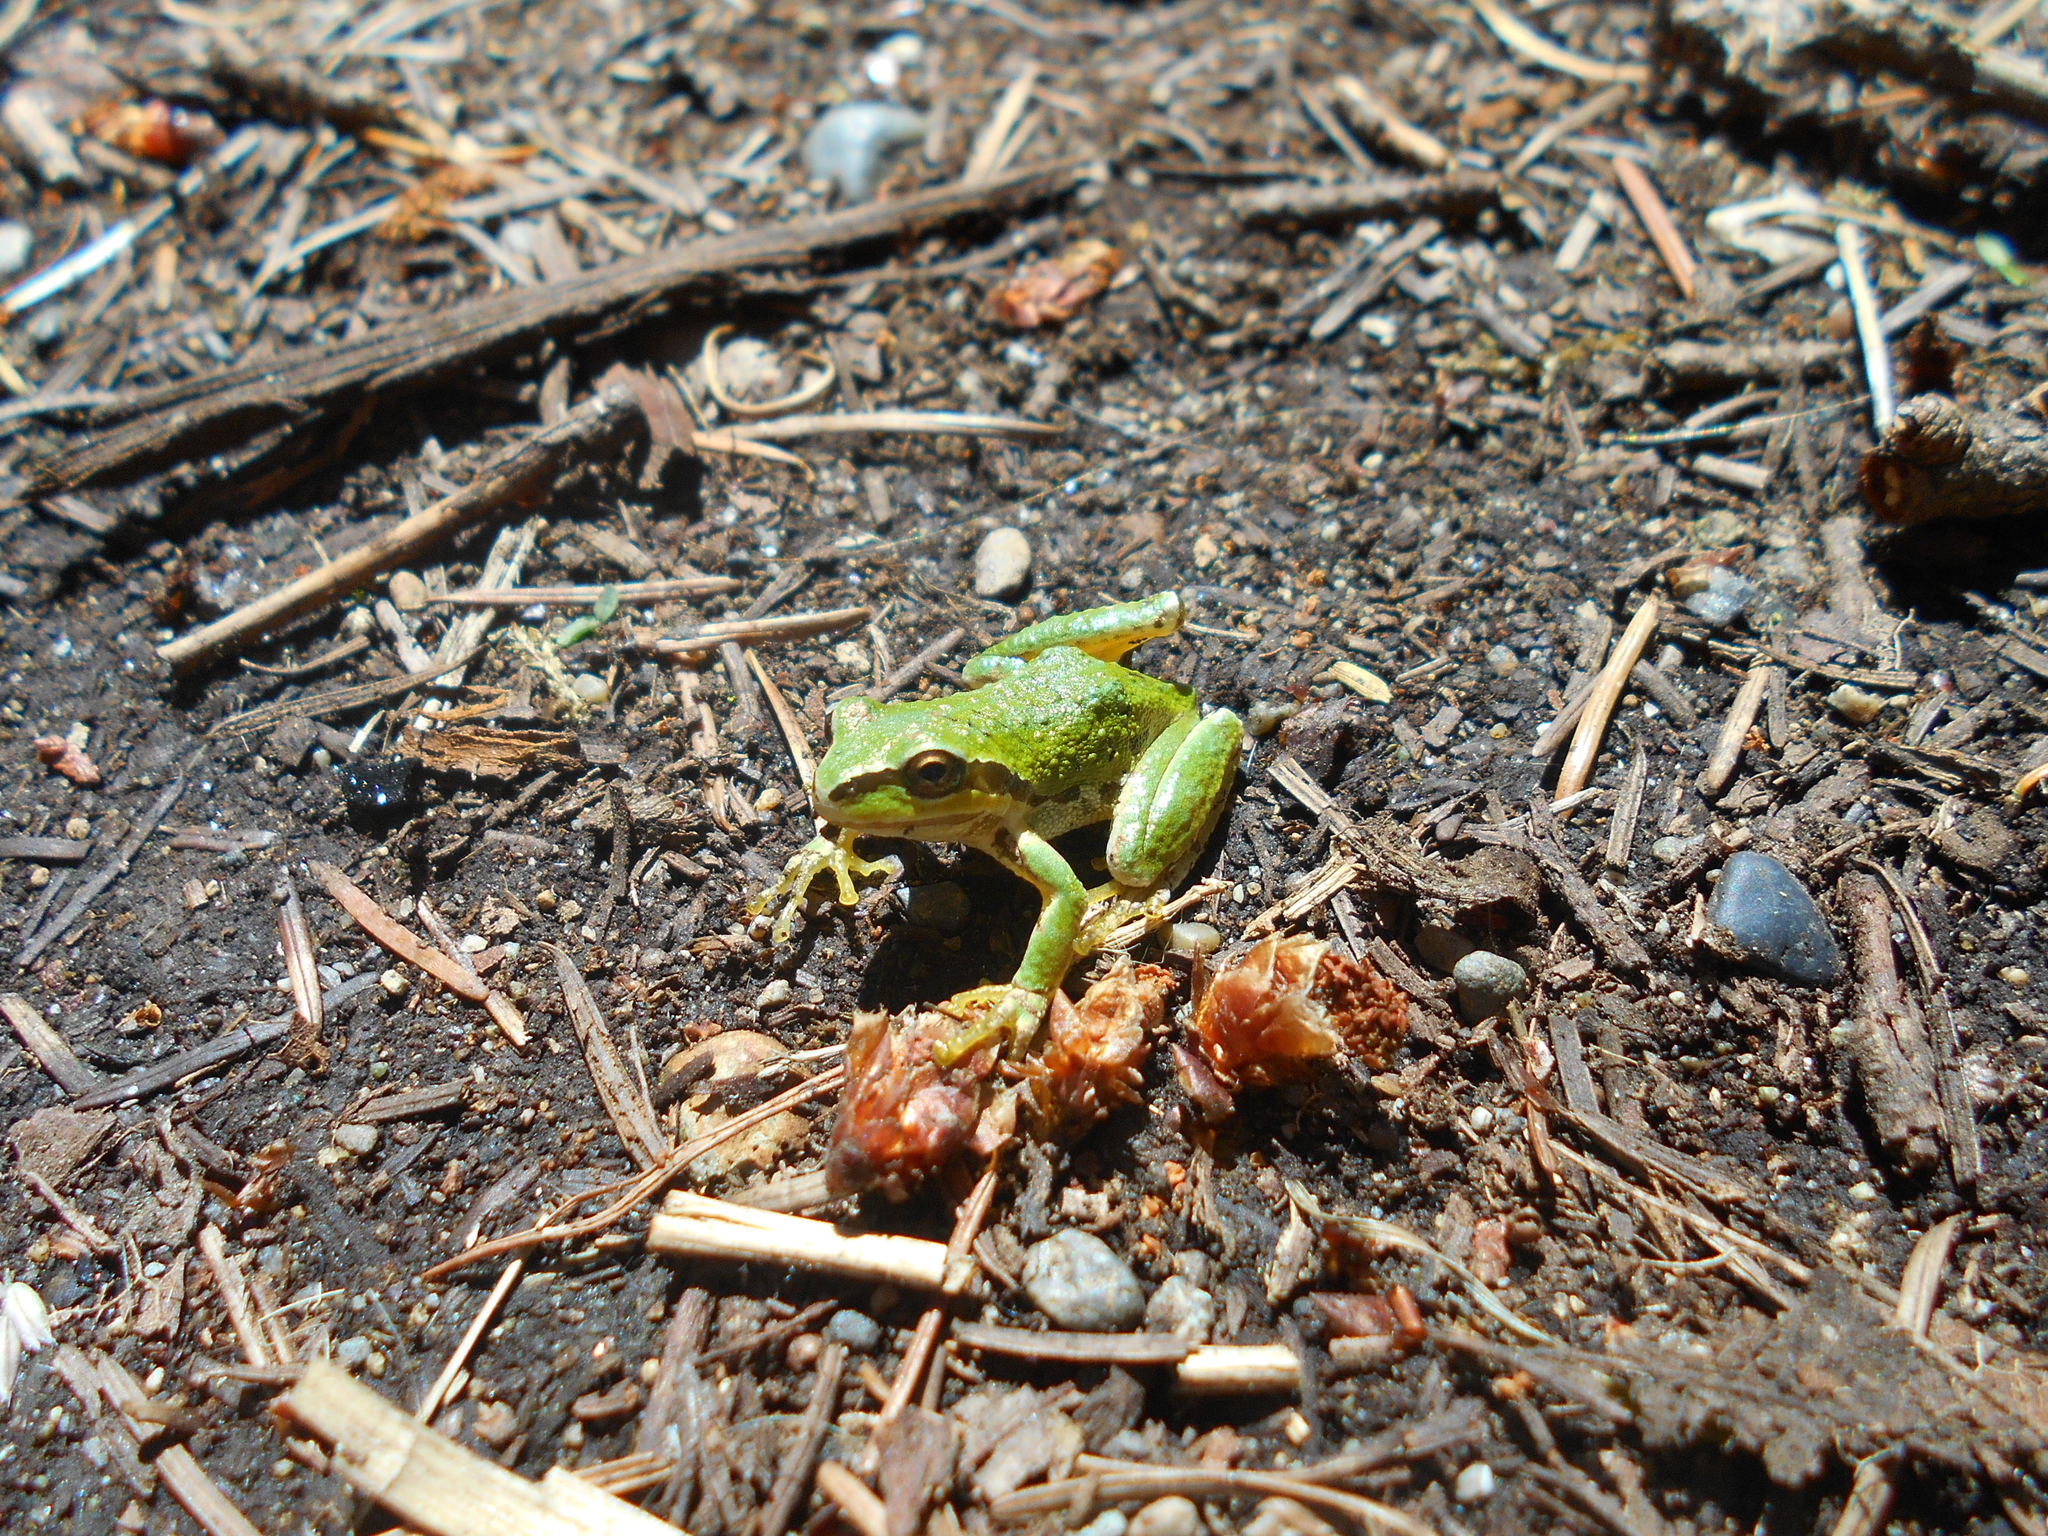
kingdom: Animalia
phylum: Chordata
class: Amphibia
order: Anura
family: Hylidae
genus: Pseudacris
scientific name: Pseudacris regilla
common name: Pacific chorus frog
